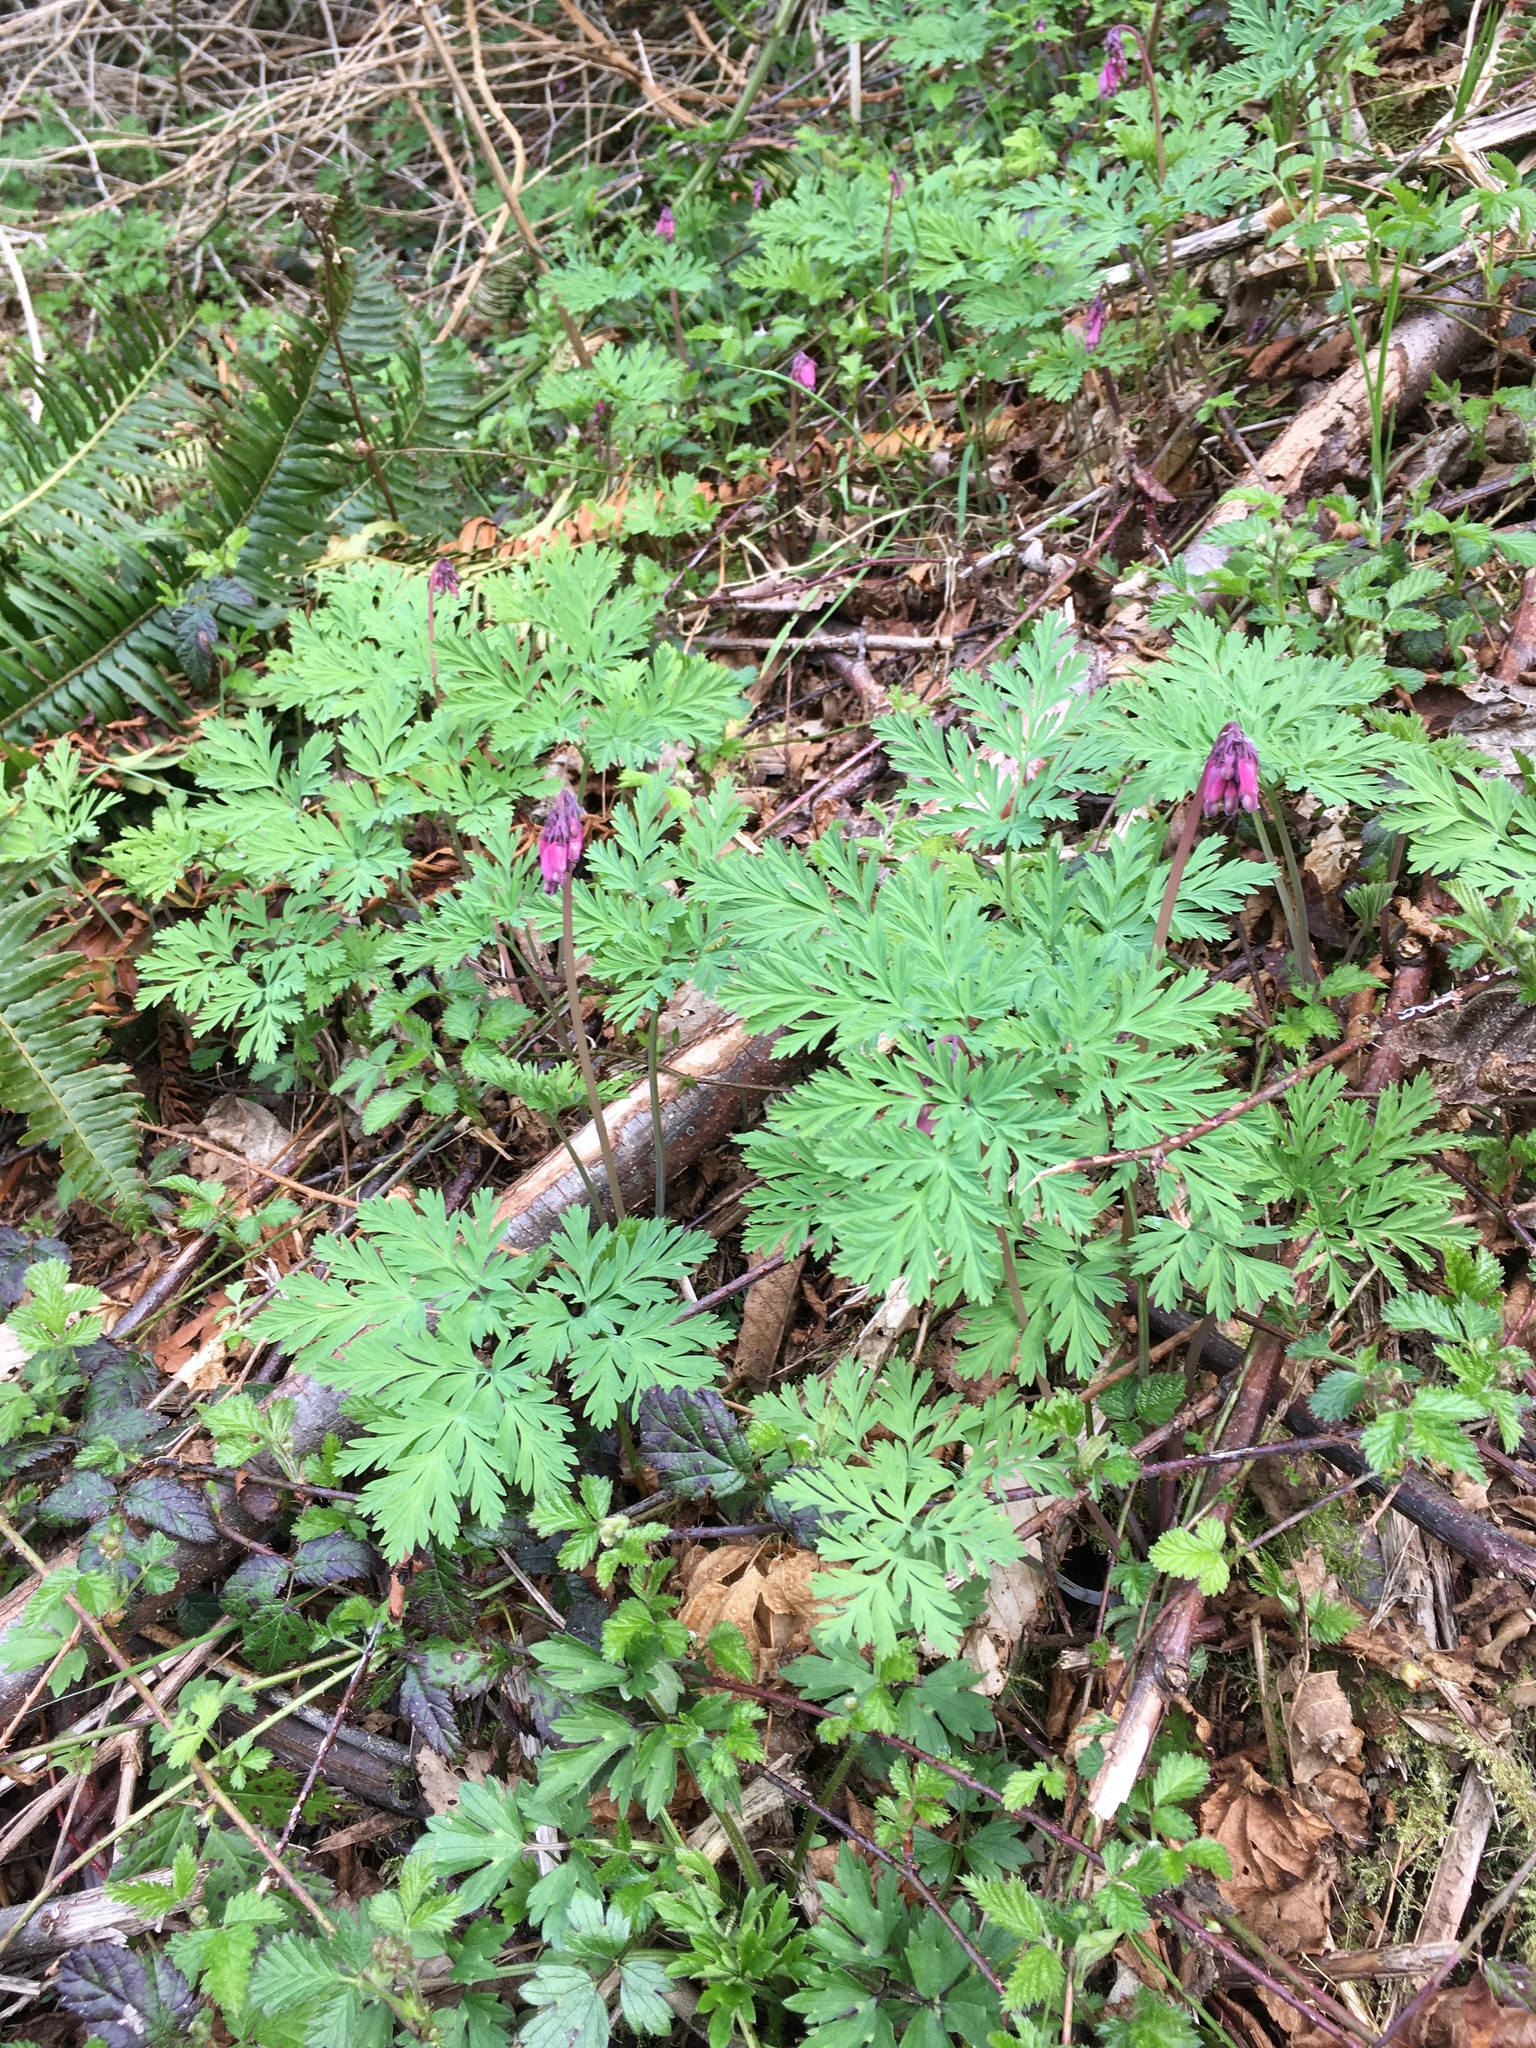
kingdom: Plantae
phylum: Tracheophyta
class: Magnoliopsida
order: Ranunculales
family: Papaveraceae
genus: Dicentra
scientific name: Dicentra formosa
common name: Bleeding-heart
